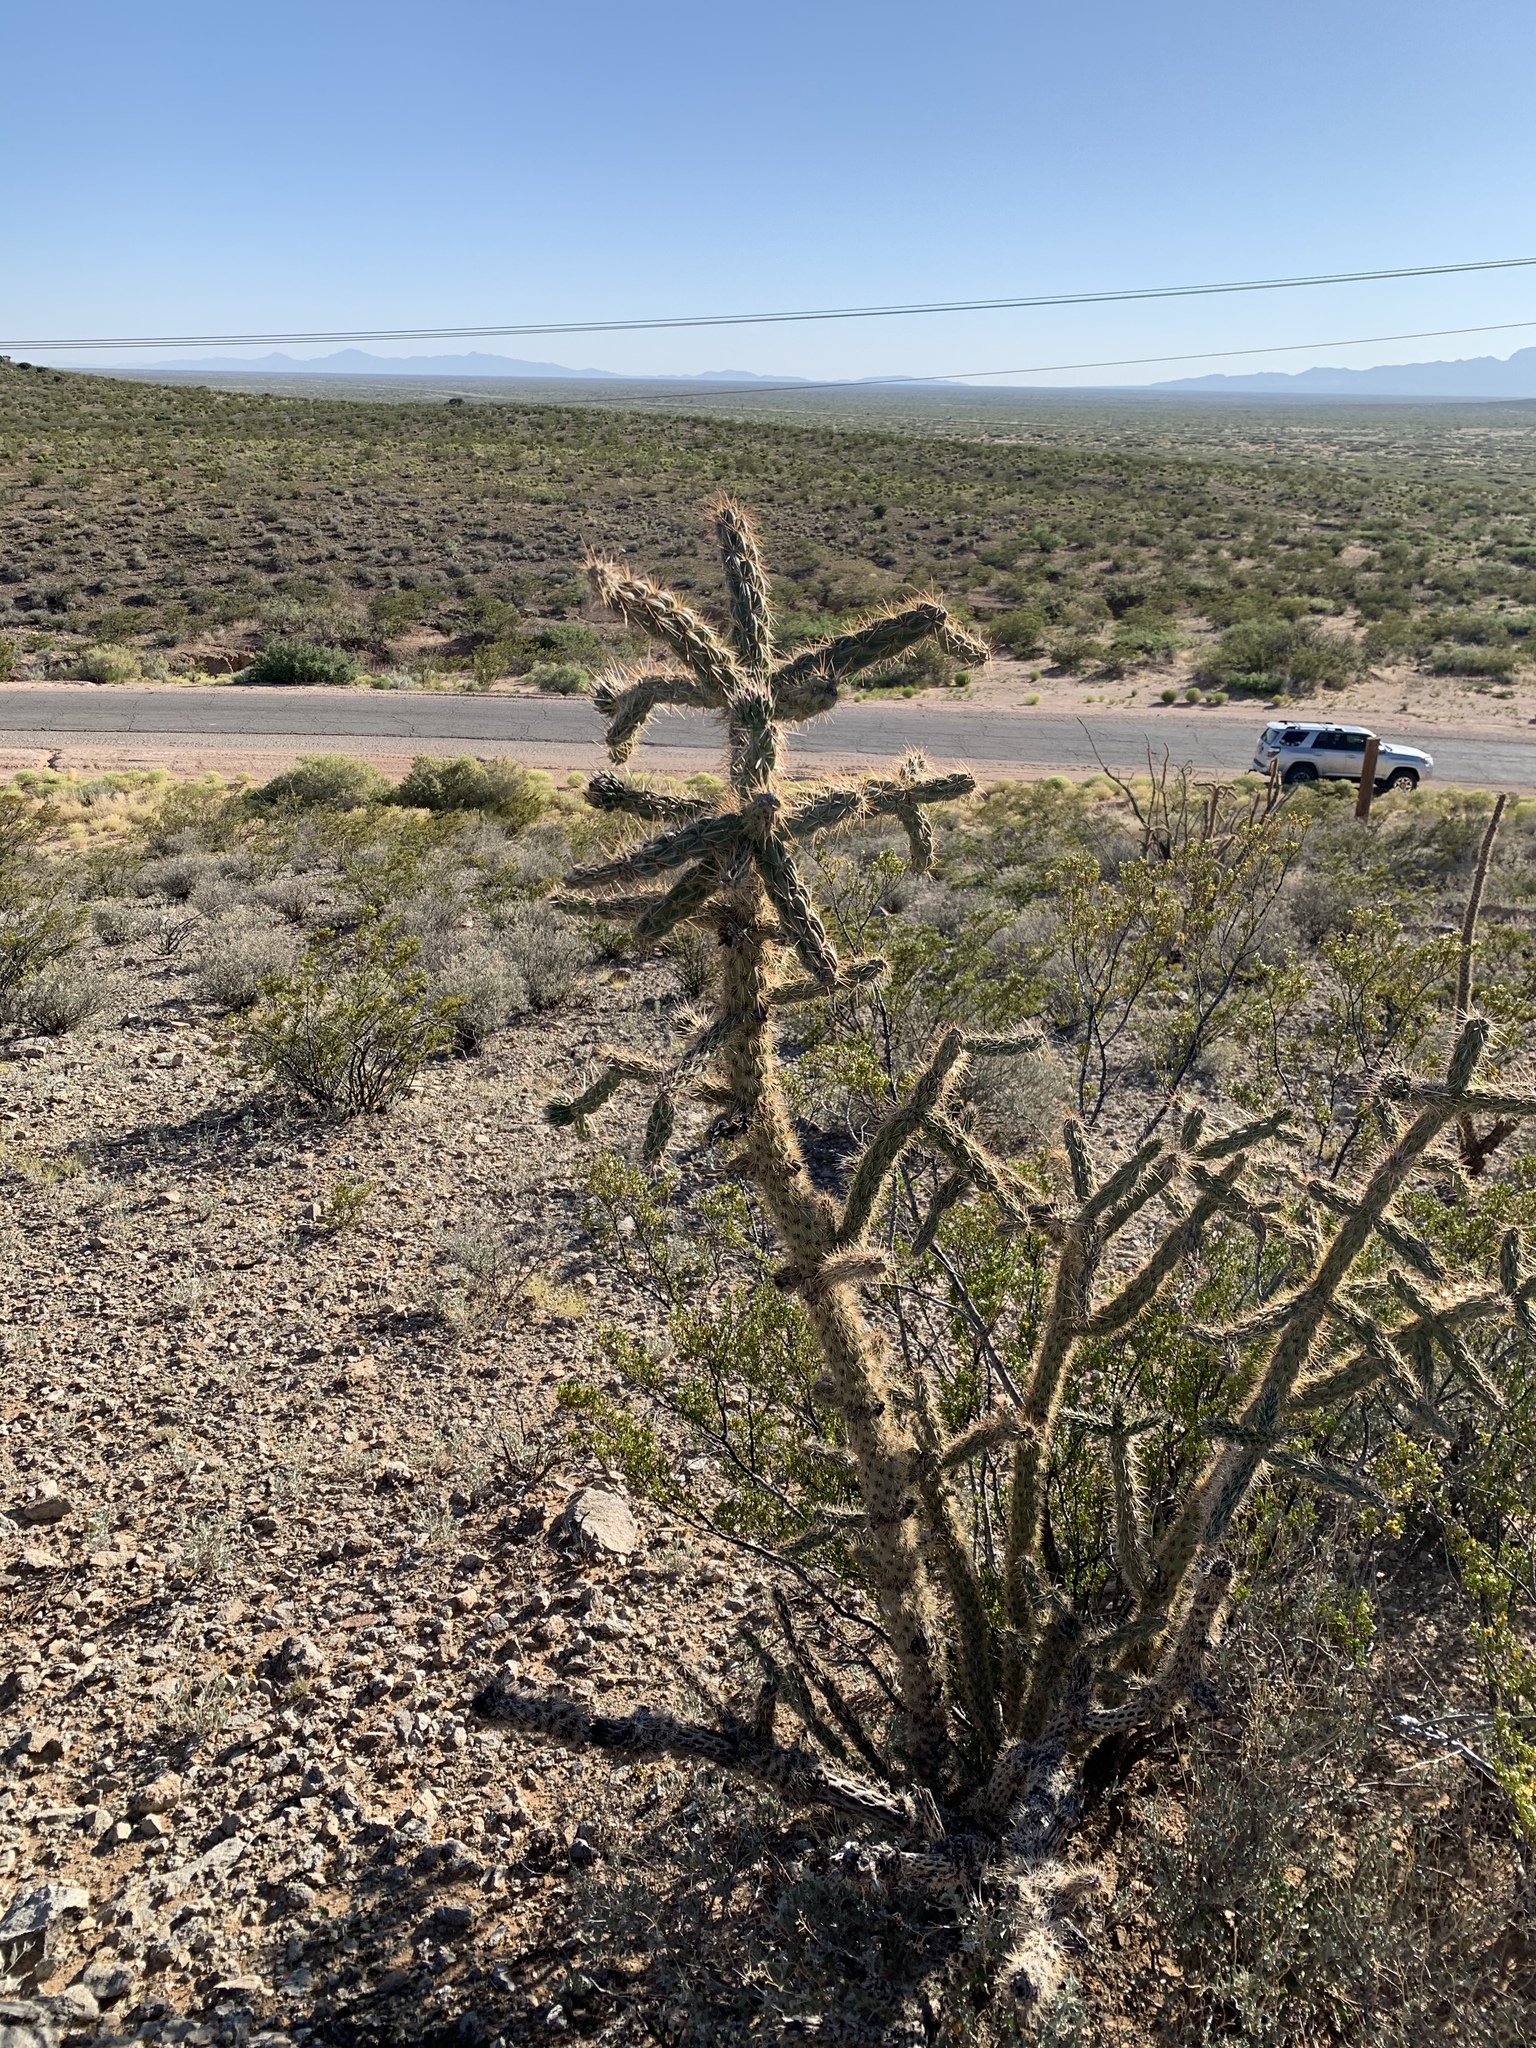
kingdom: Plantae
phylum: Tracheophyta
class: Magnoliopsida
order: Caryophyllales
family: Cactaceae
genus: Cylindropuntia
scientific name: Cylindropuntia imbricata
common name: Candelabrum cactus
